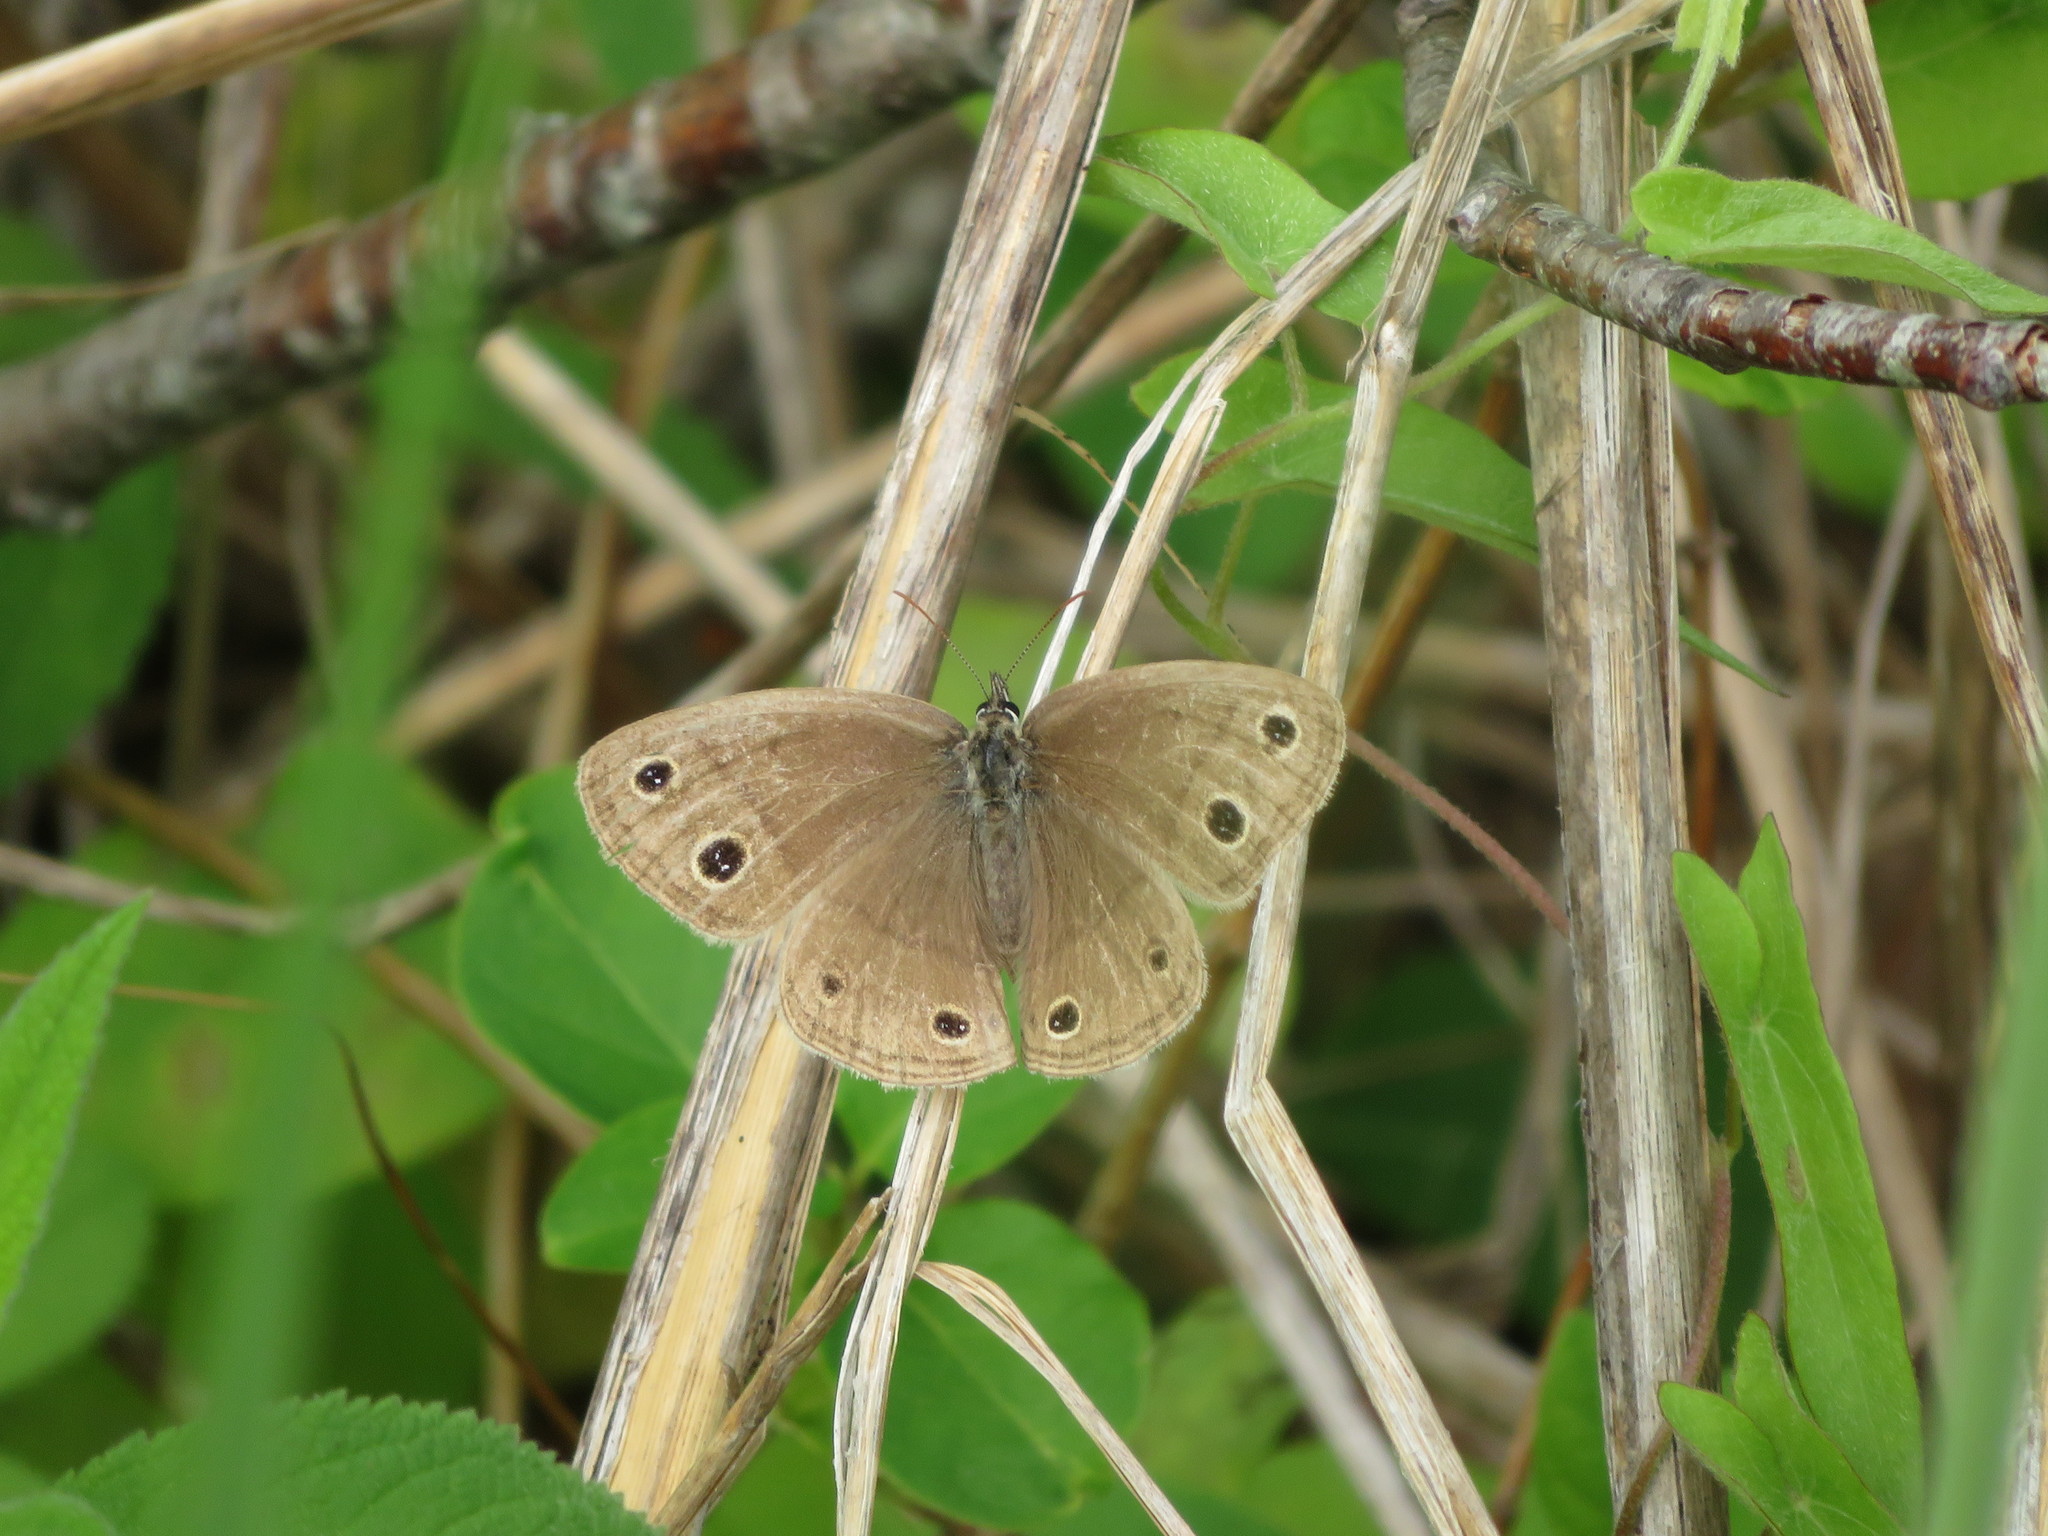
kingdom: Animalia
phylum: Arthropoda
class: Insecta
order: Lepidoptera
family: Nymphalidae
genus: Euptychia
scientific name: Euptychia cymela
